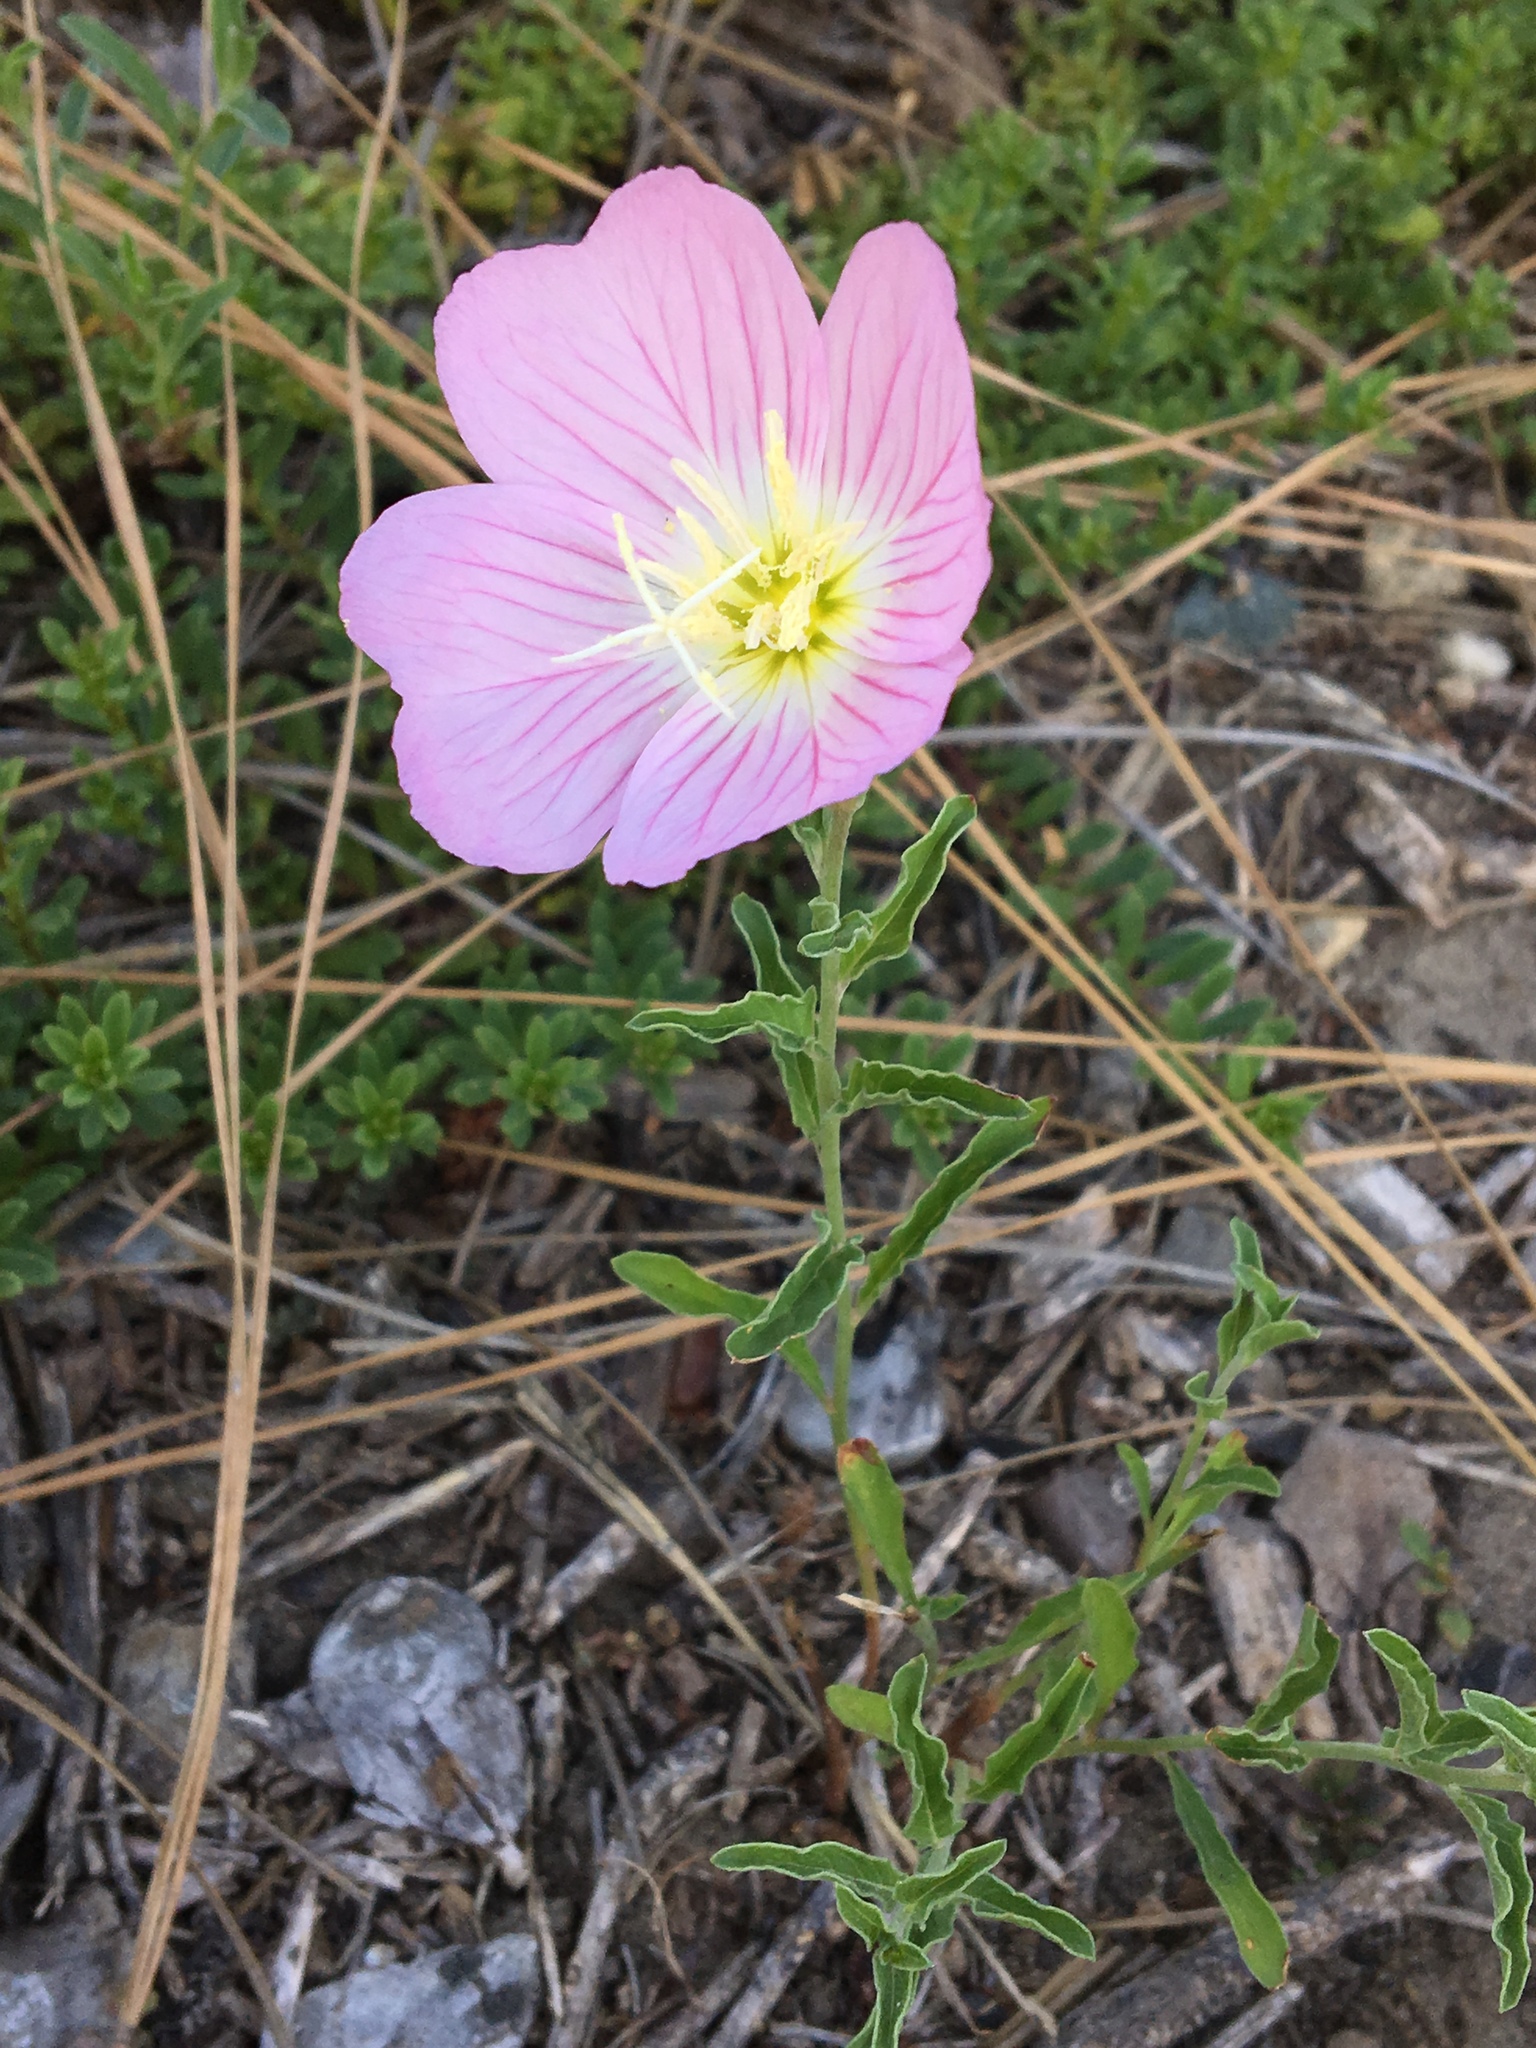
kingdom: Plantae
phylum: Tracheophyta
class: Magnoliopsida
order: Myrtales
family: Onagraceae
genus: Oenothera
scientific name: Oenothera speciosa
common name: White evening-primrose
